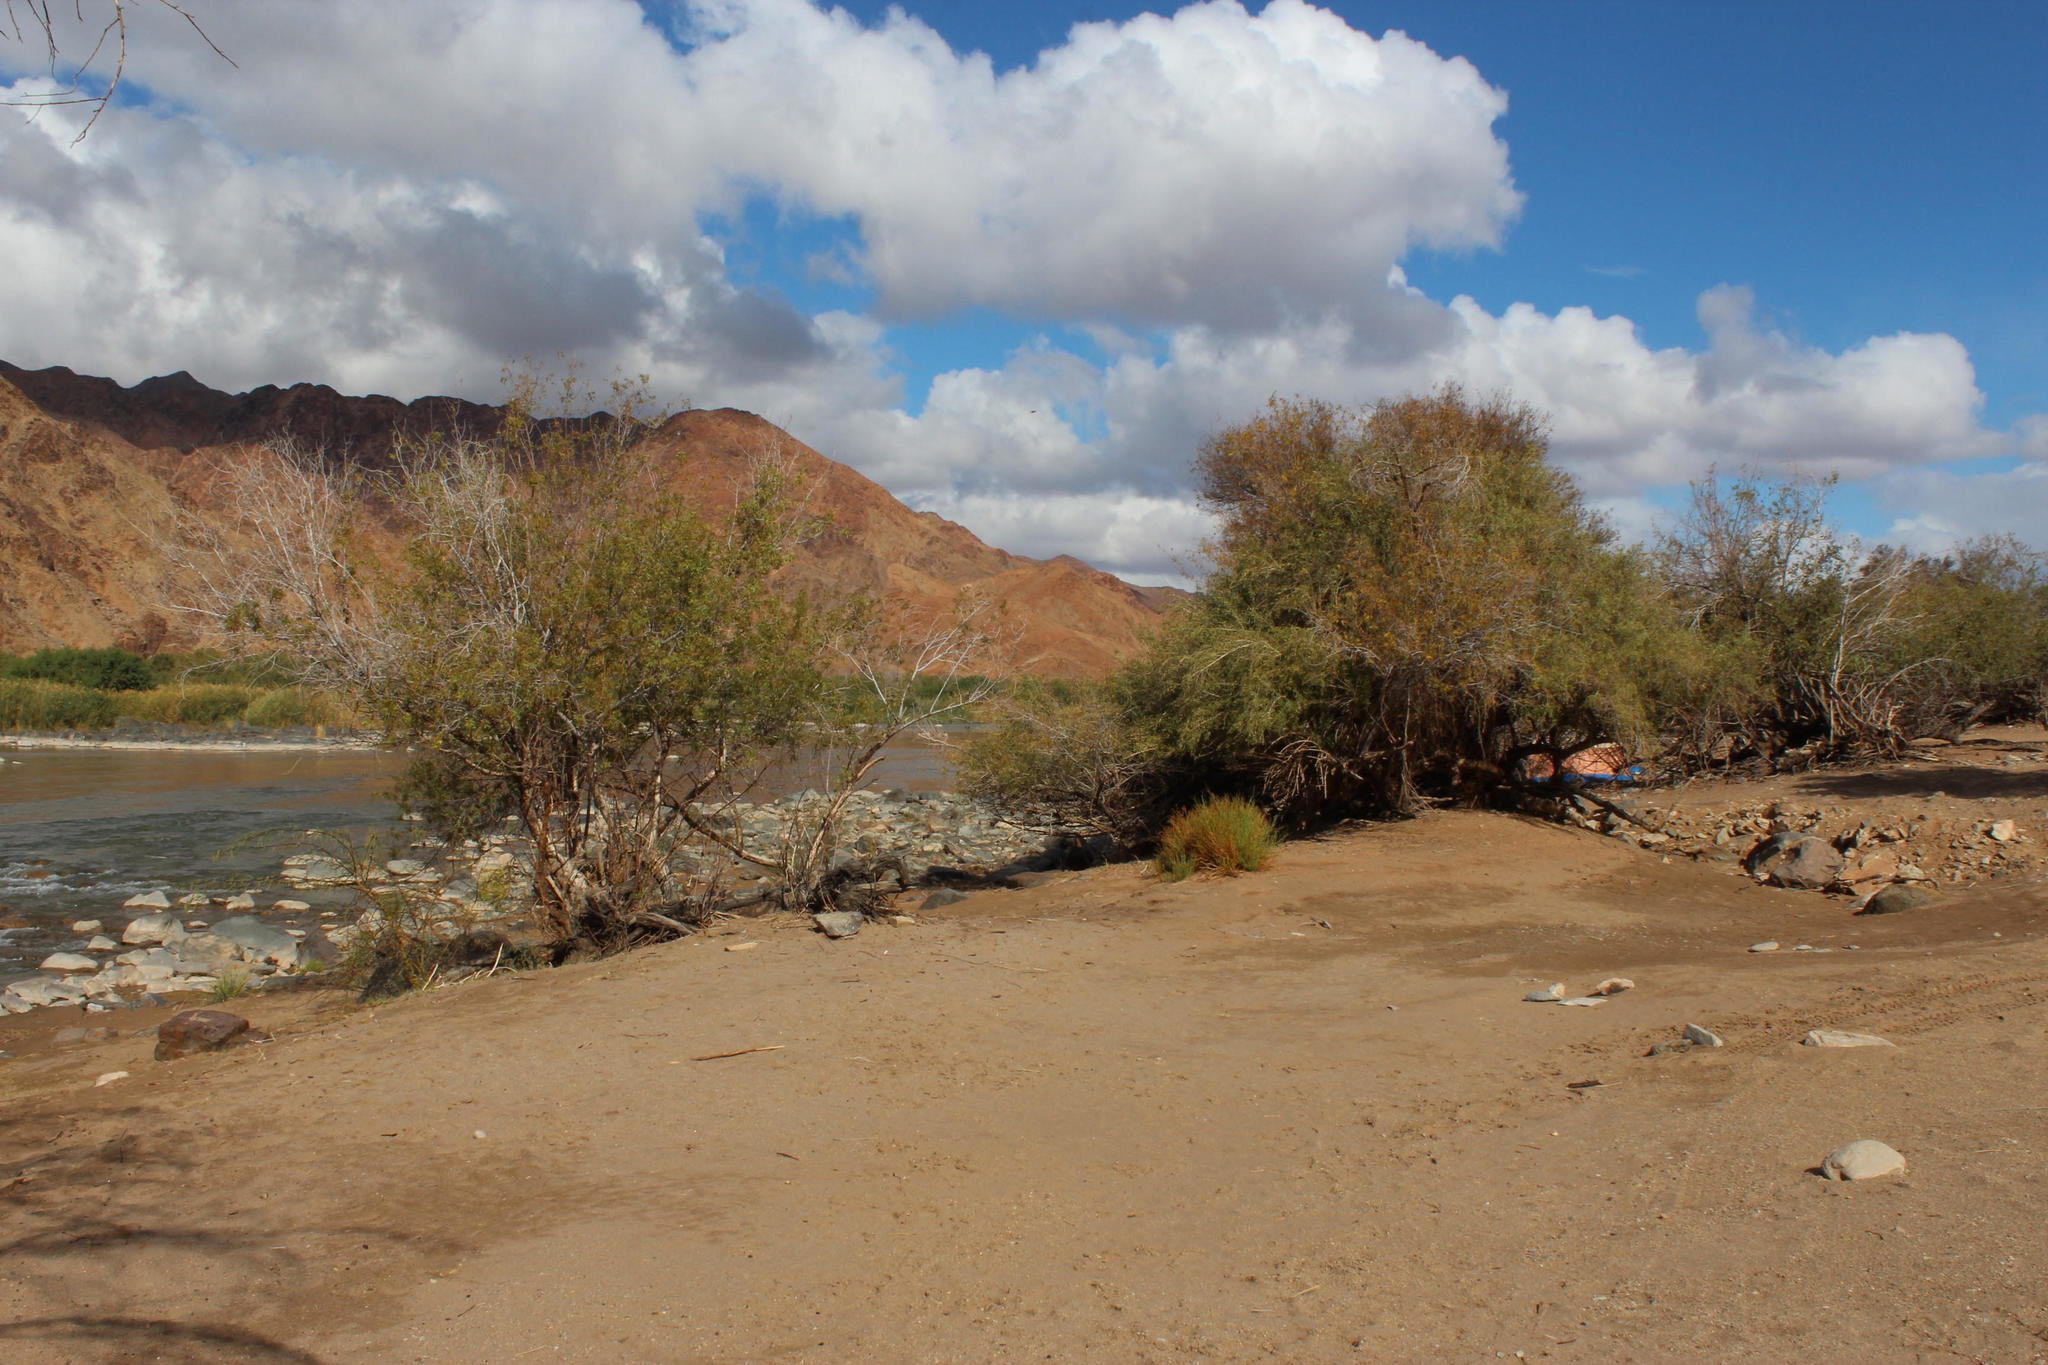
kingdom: Plantae
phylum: Tracheophyta
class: Magnoliopsida
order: Sapindales
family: Anacardiaceae
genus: Searsia
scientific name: Searsia pendulina
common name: White karee
